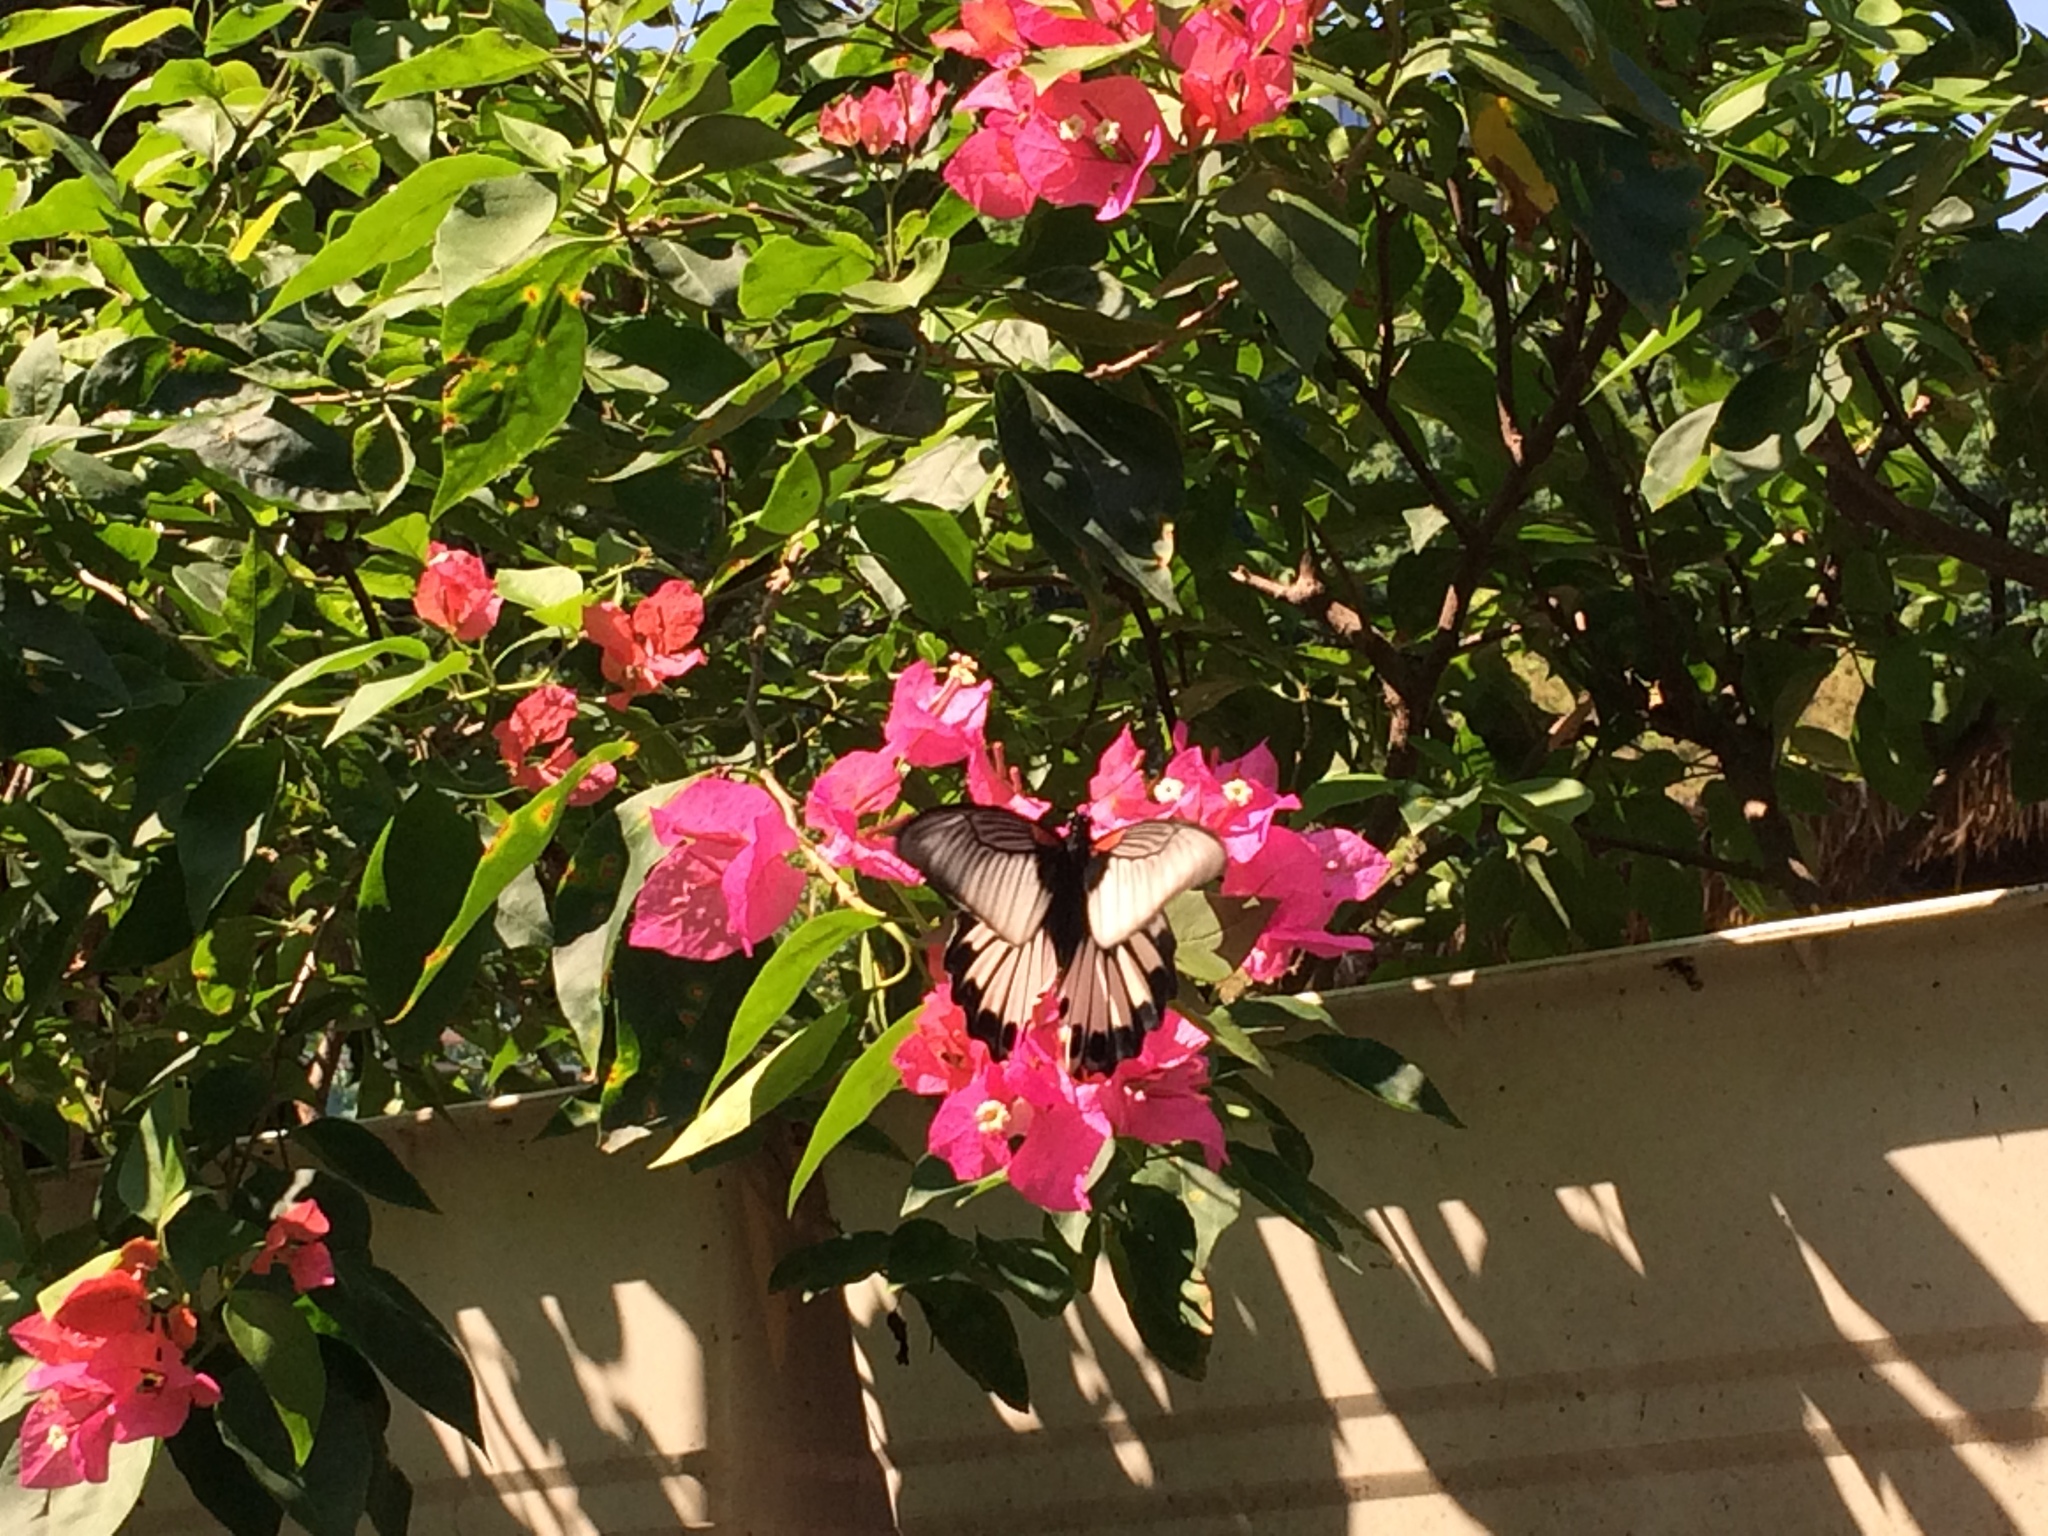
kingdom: Animalia
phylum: Arthropoda
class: Insecta
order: Lepidoptera
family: Papilionidae
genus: Papilio
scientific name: Papilio memnon
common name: Great mormon
